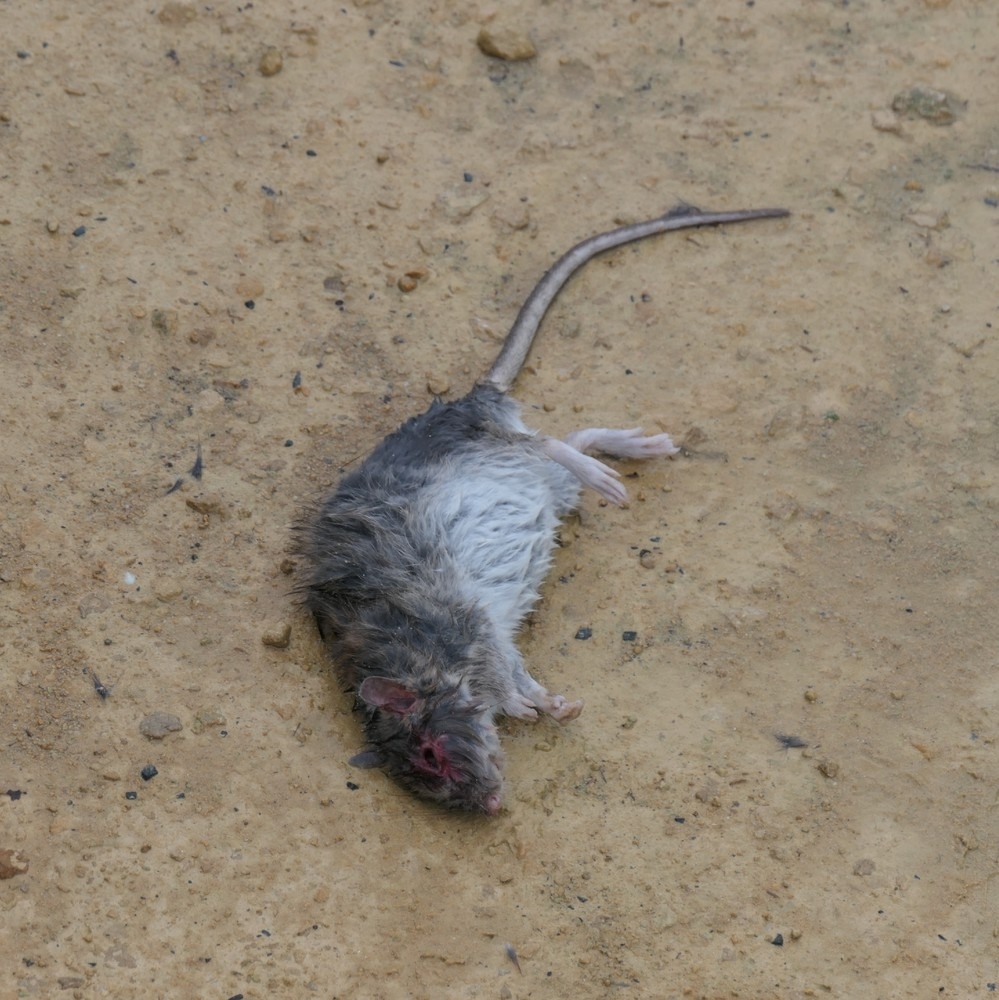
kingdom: Animalia
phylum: Chordata
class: Mammalia
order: Rodentia
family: Muridae
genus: Rattus
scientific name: Rattus norvegicus
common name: Brown rat
